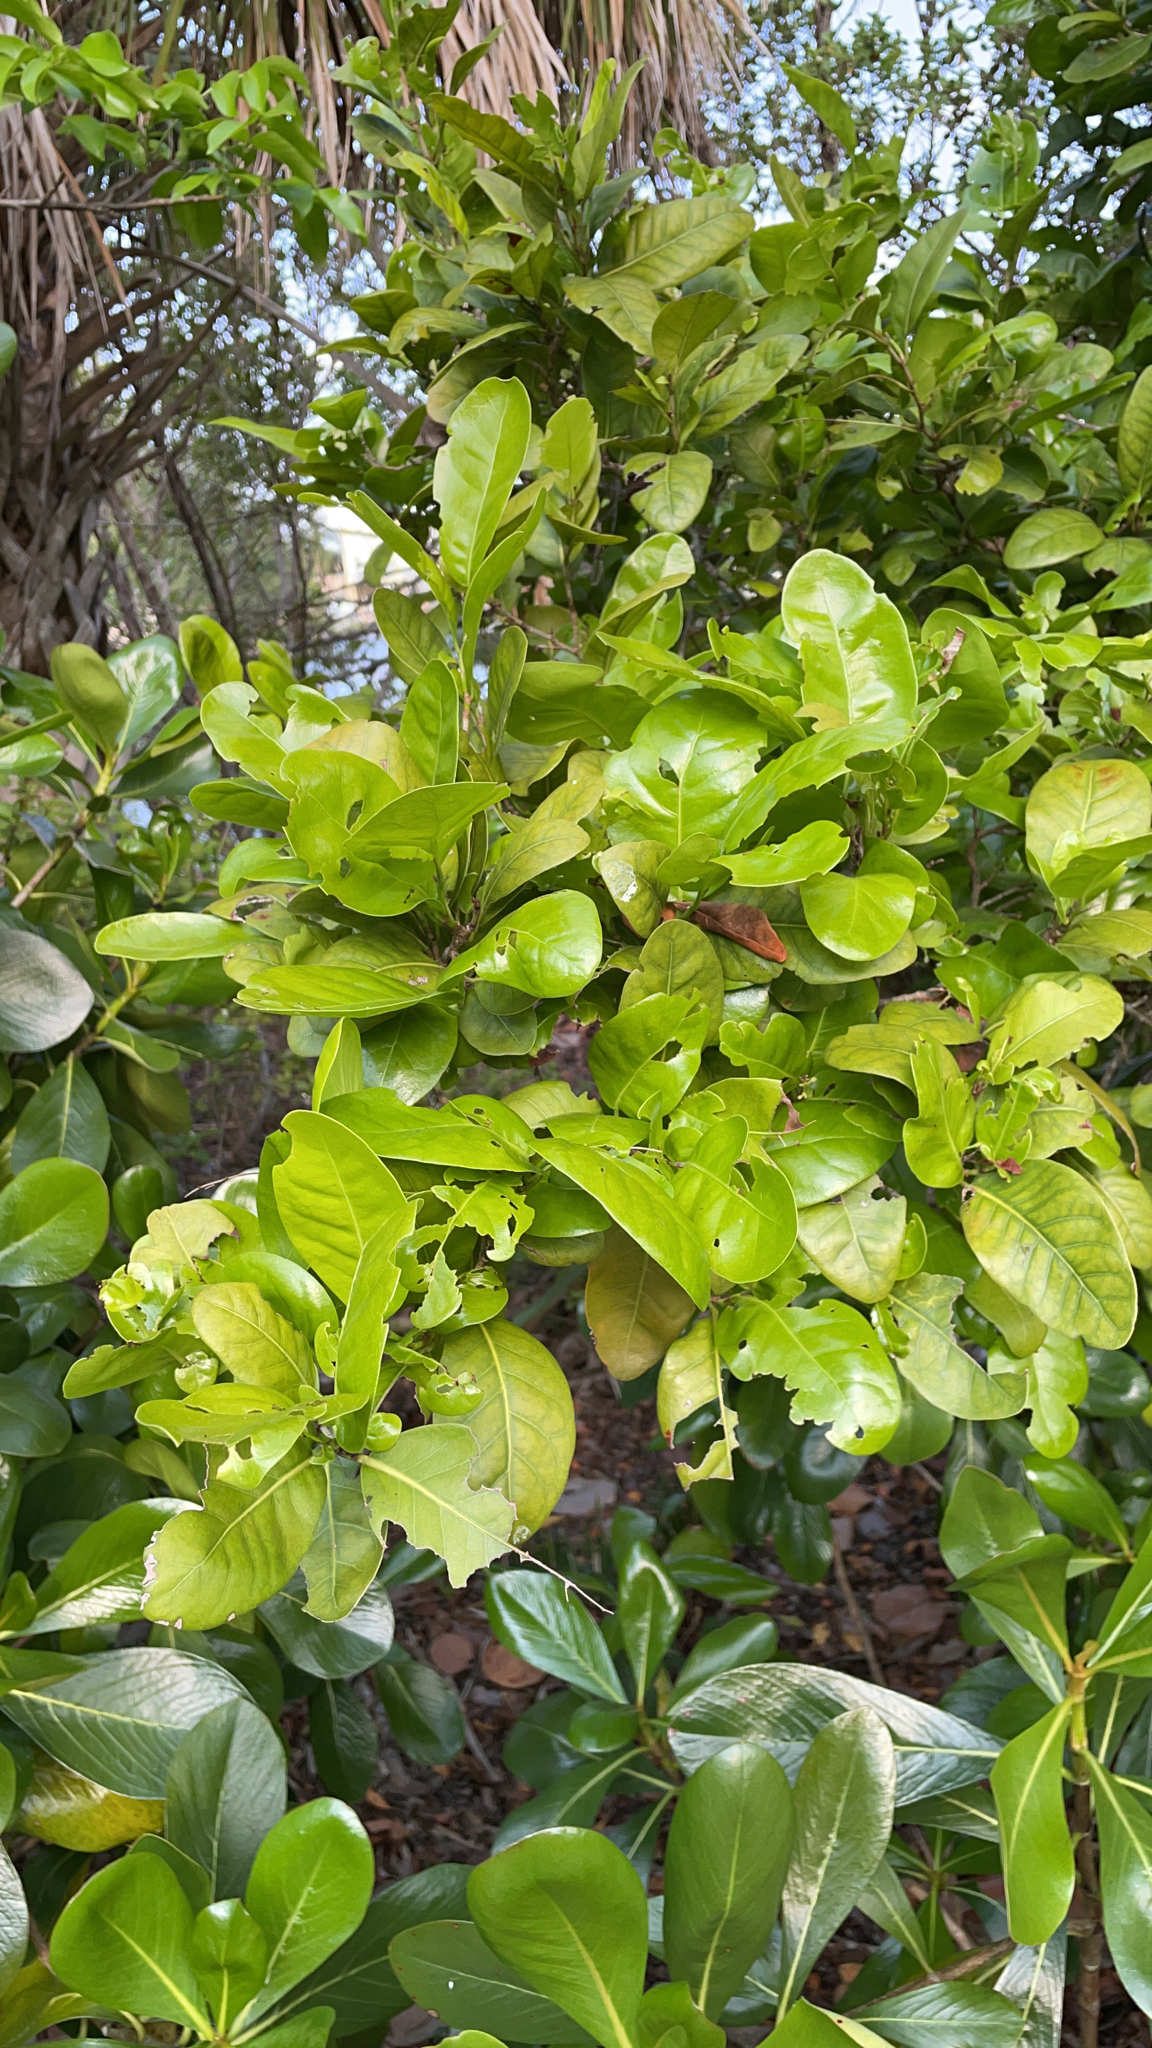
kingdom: Plantae
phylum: Tracheophyta
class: Magnoliopsida
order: Caryophyllales
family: Polygonaceae
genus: Coccoloba
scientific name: Coccoloba diversifolia
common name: Pigeon-plum
